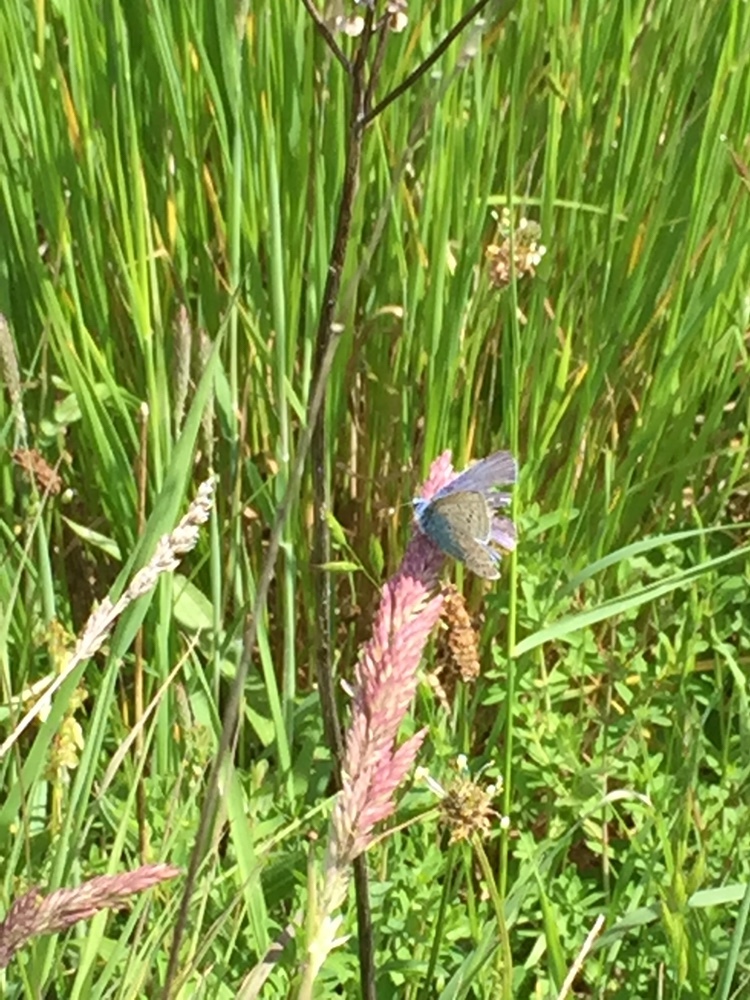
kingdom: Animalia
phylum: Arthropoda
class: Insecta
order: Lepidoptera
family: Lycaenidae
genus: Polyommatus
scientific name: Polyommatus icarus
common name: Common blue
